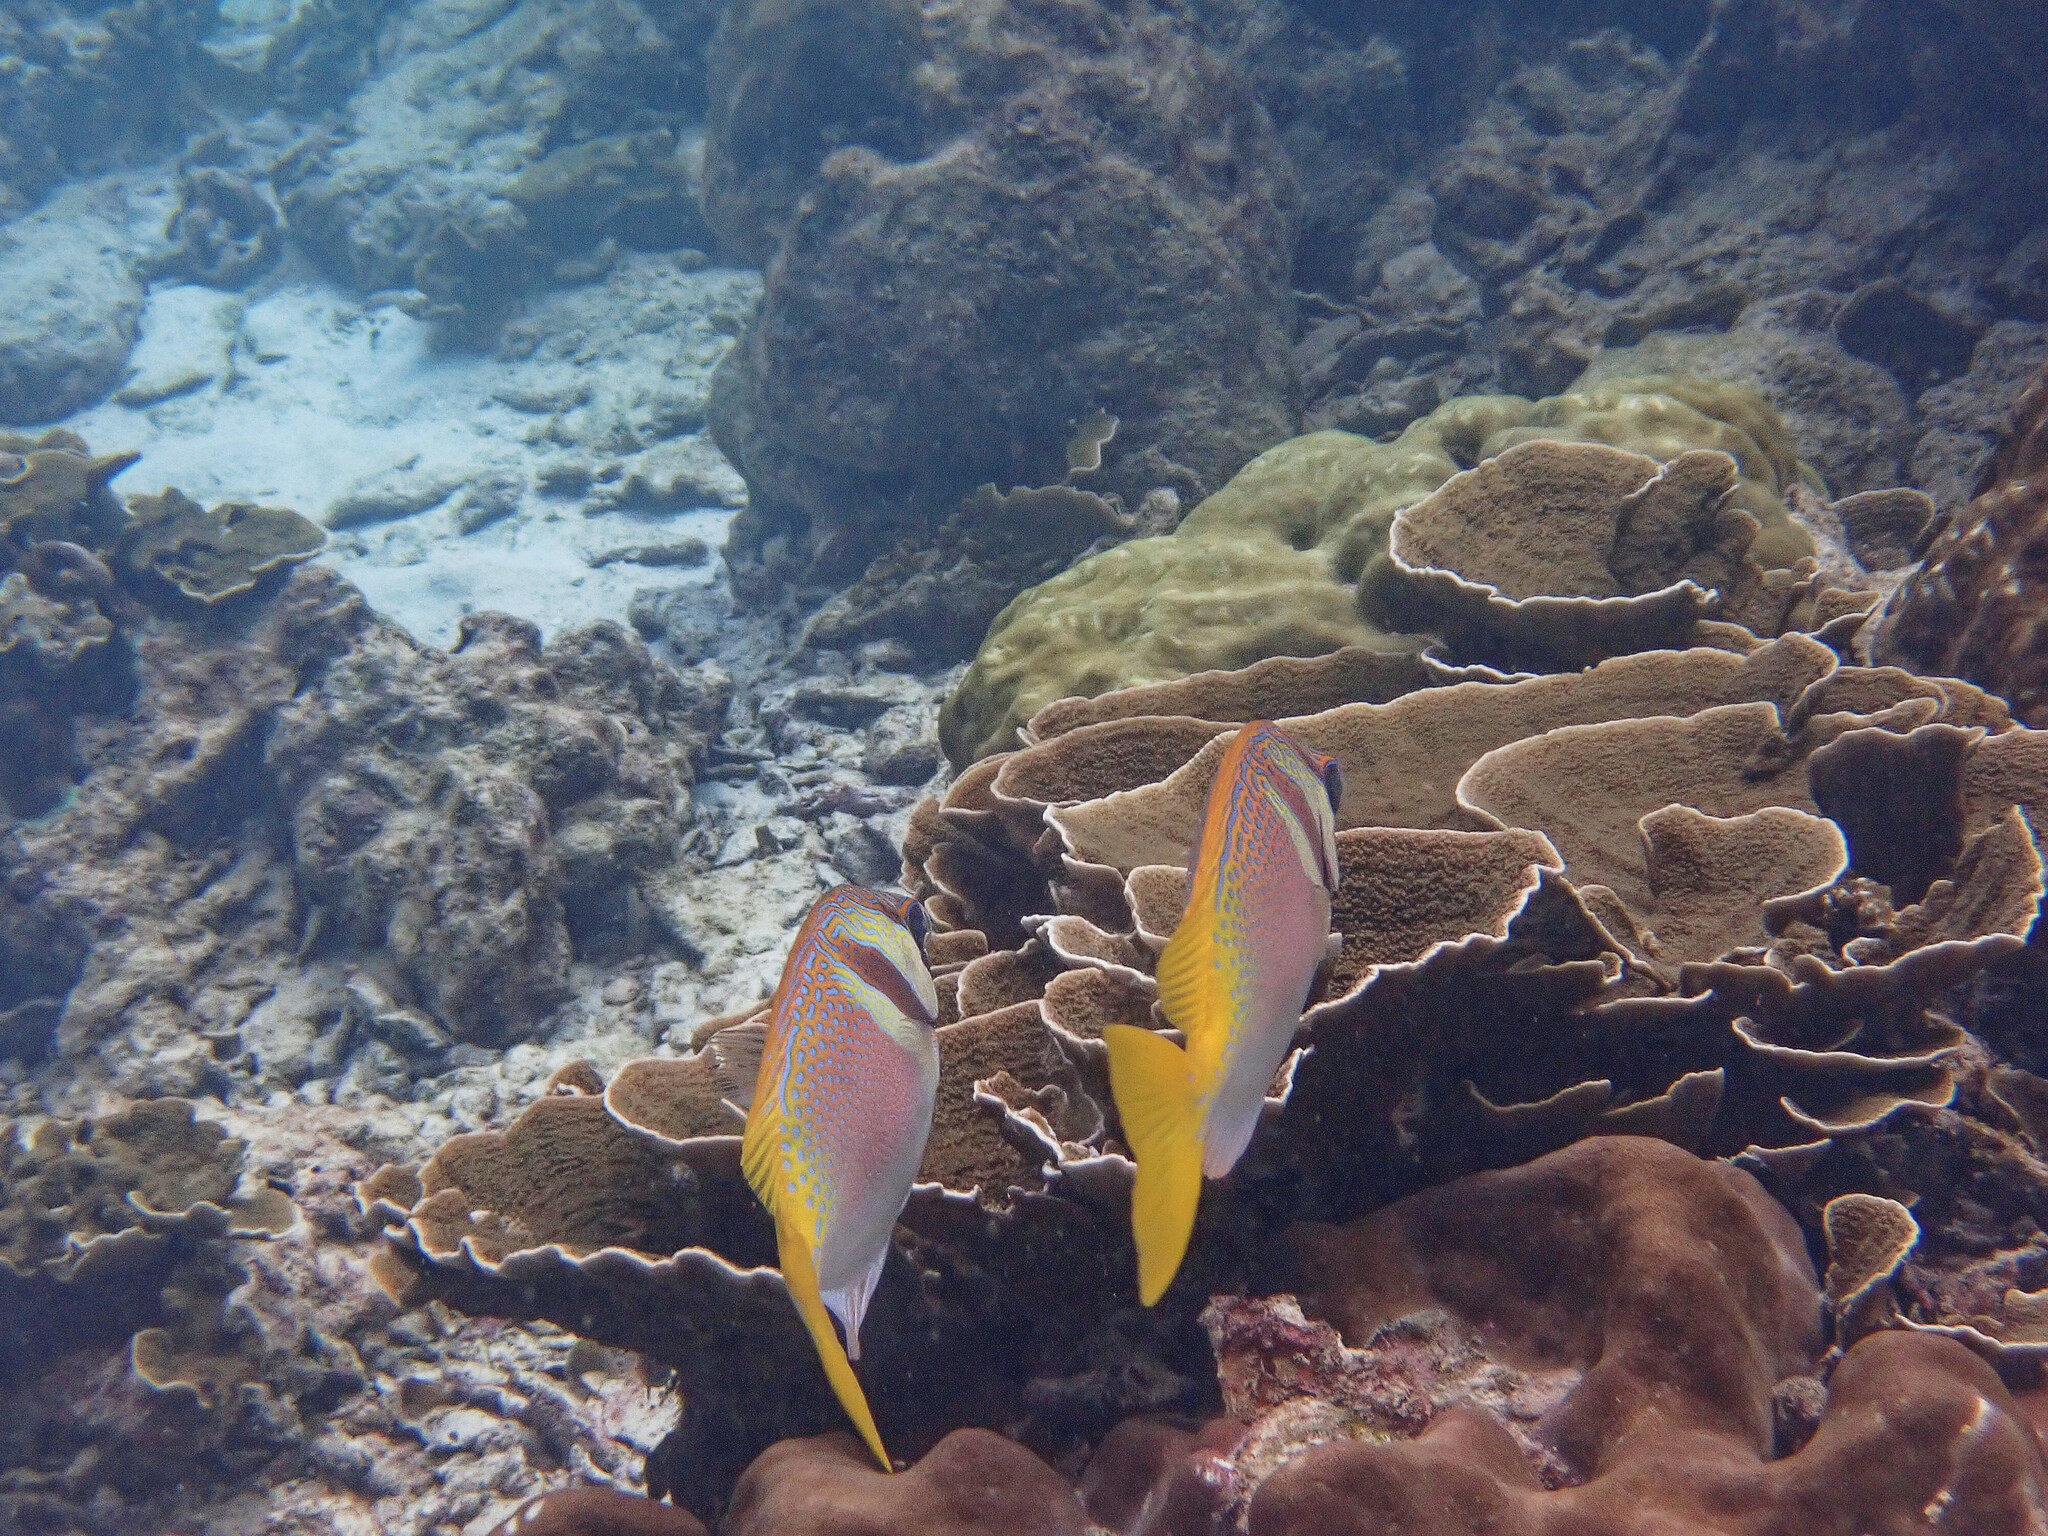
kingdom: Animalia
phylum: Chordata
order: Perciformes
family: Siganidae
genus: Siganus
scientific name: Siganus virgatus
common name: Barhead spinefoot
